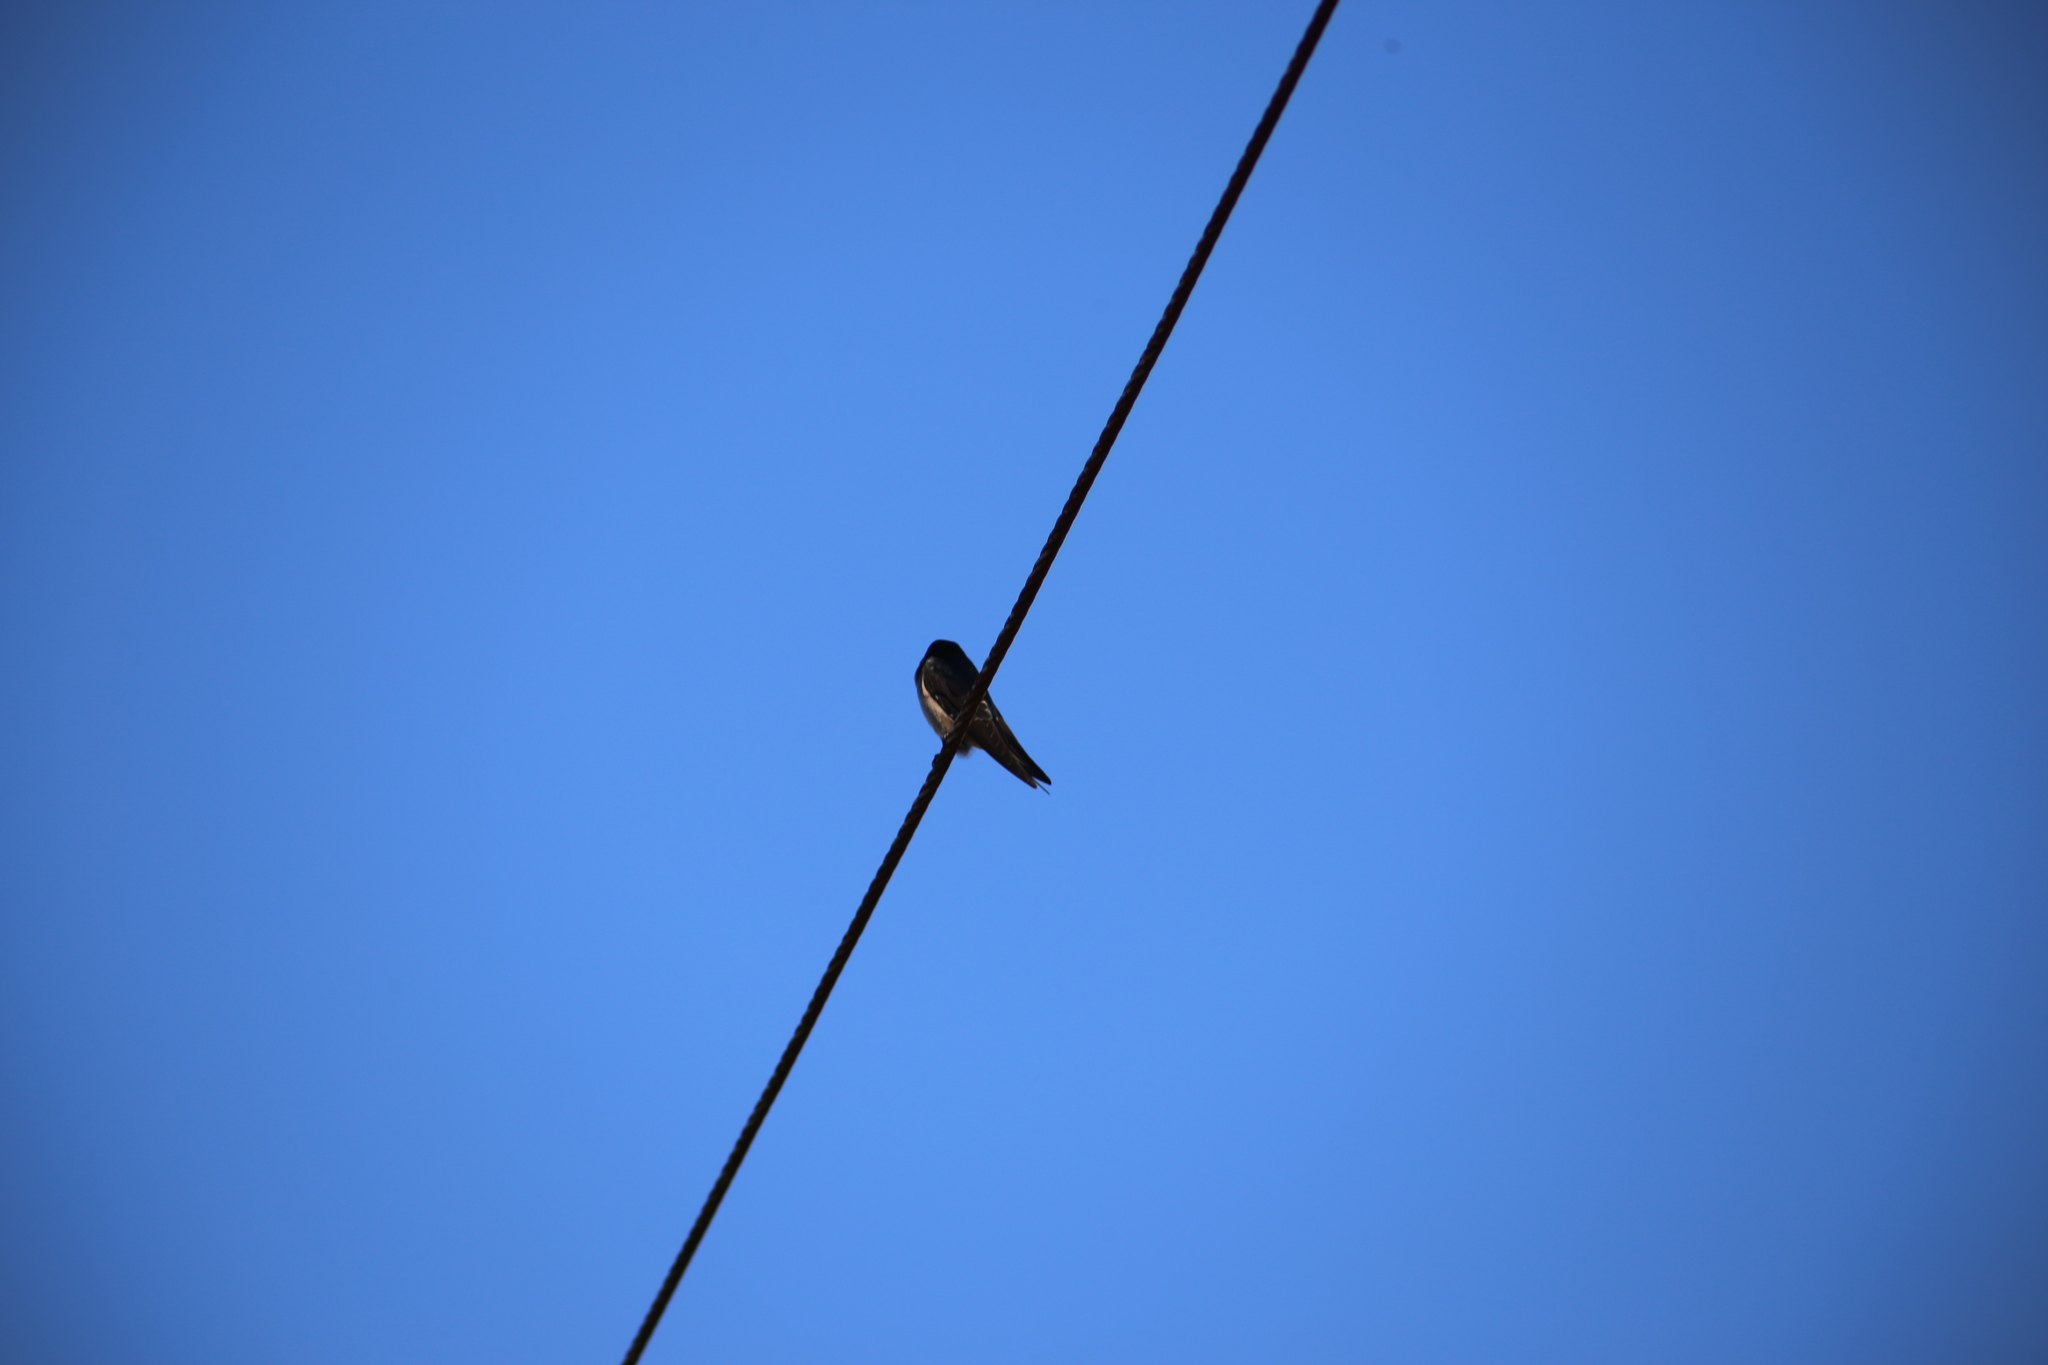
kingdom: Animalia
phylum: Chordata
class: Aves
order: Passeriformes
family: Hirundinidae
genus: Hirundo
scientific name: Hirundo neoxena
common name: Welcome swallow
